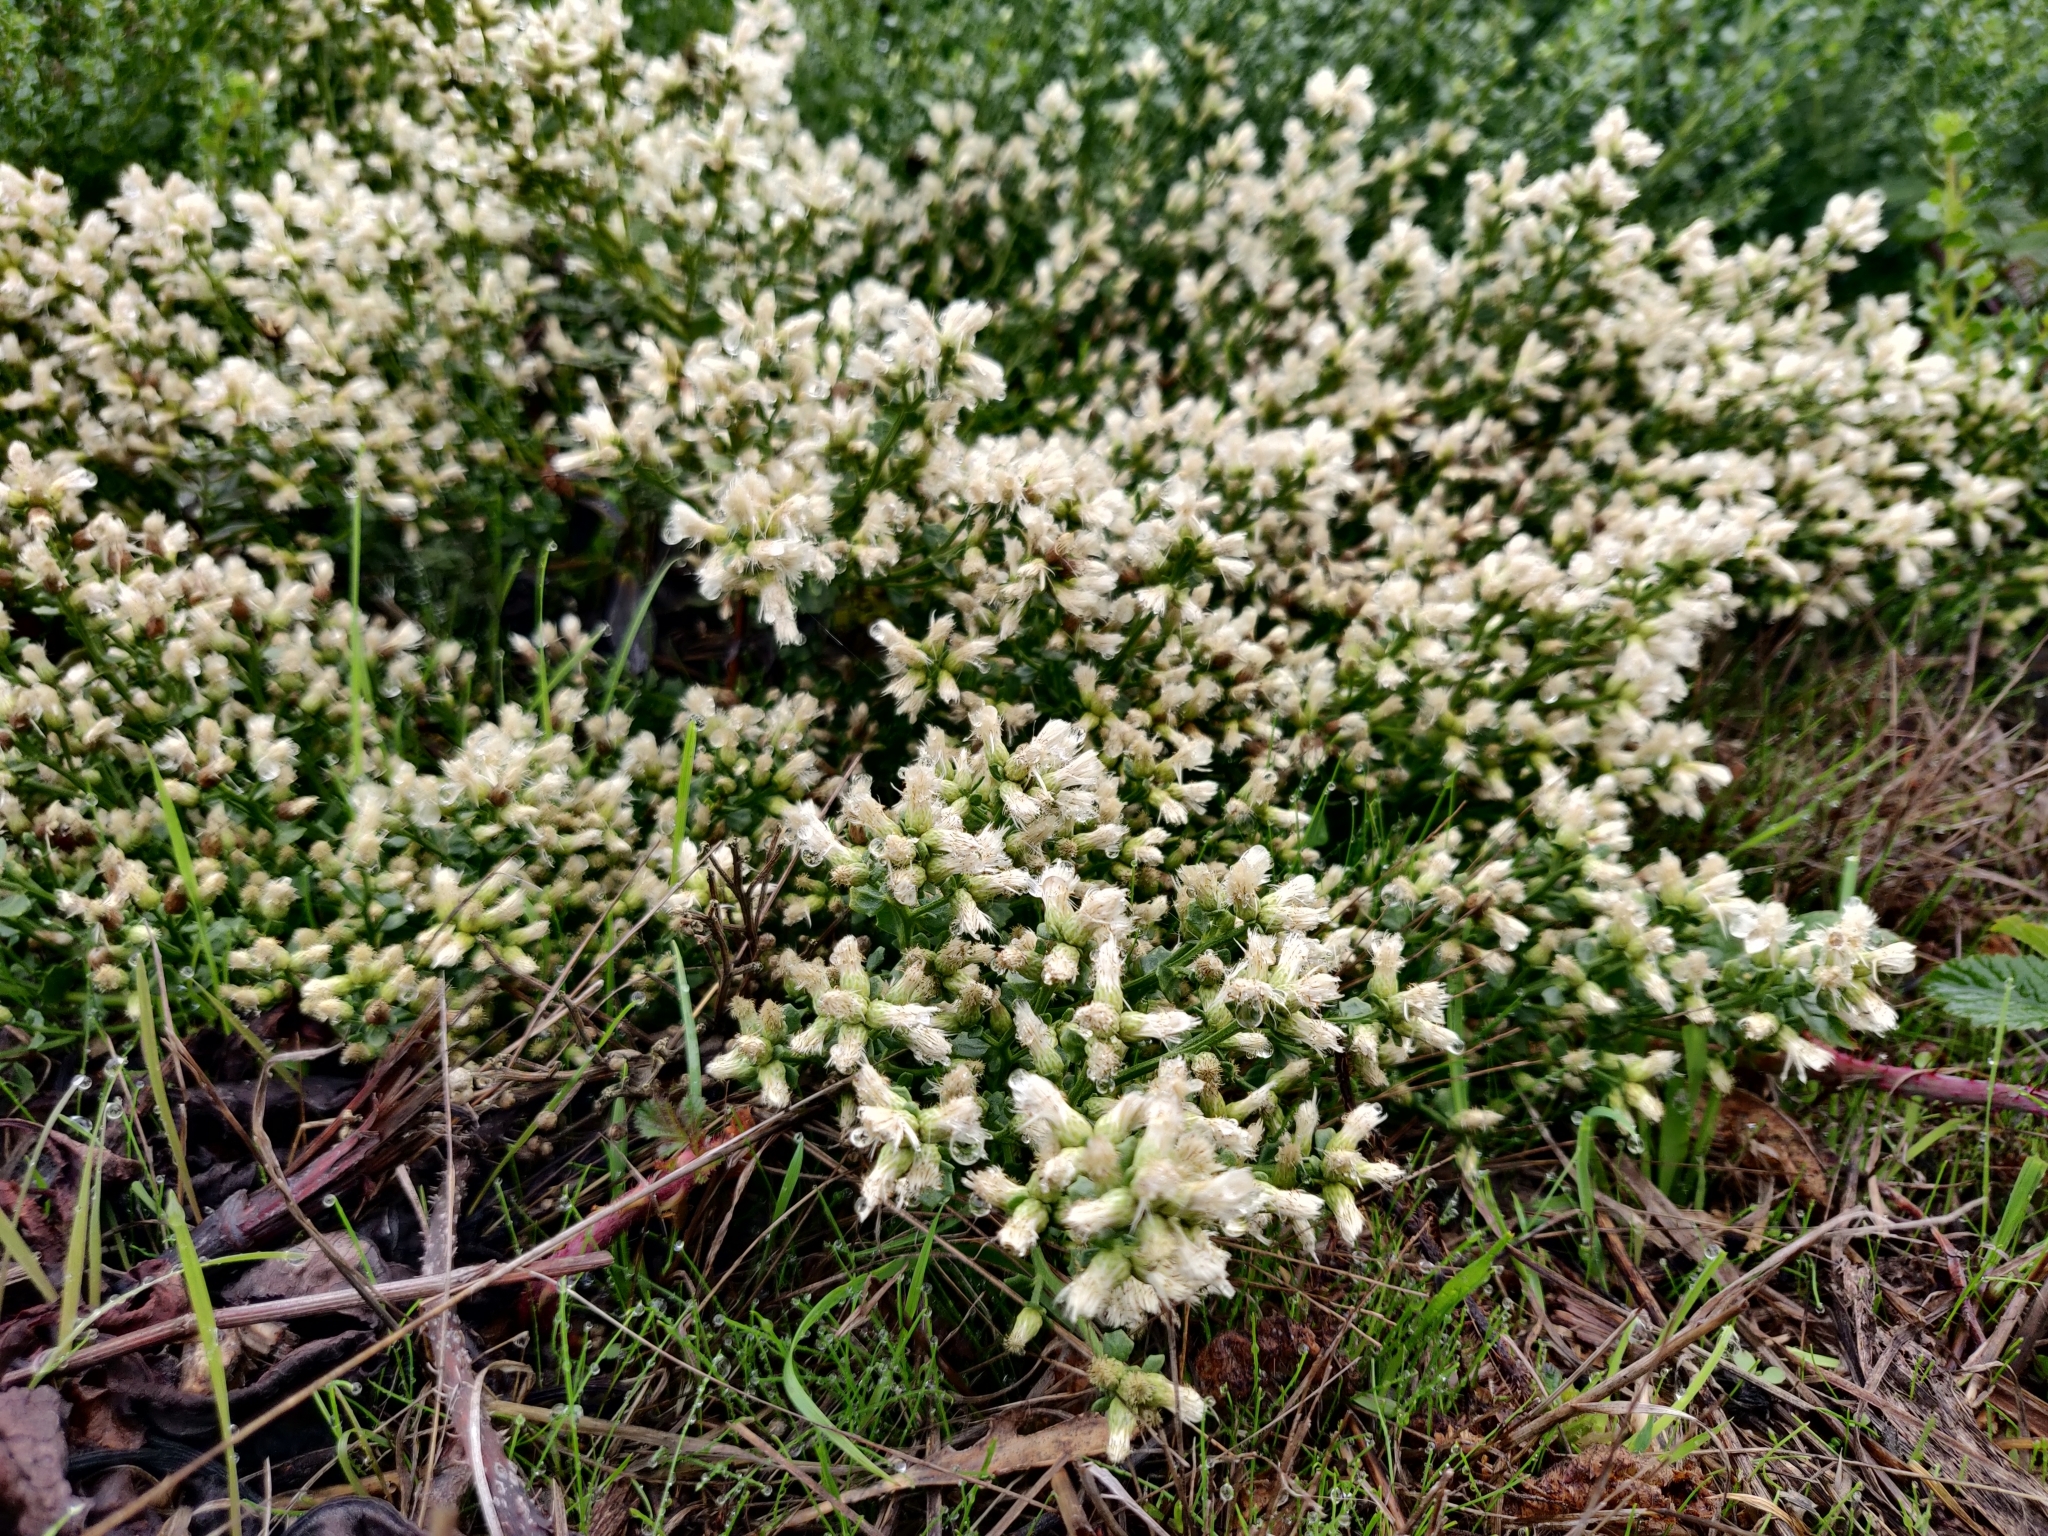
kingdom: Plantae
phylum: Tracheophyta
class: Magnoliopsida
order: Asterales
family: Asteraceae
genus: Baccharis
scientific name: Baccharis pilularis
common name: Coyotebrush
